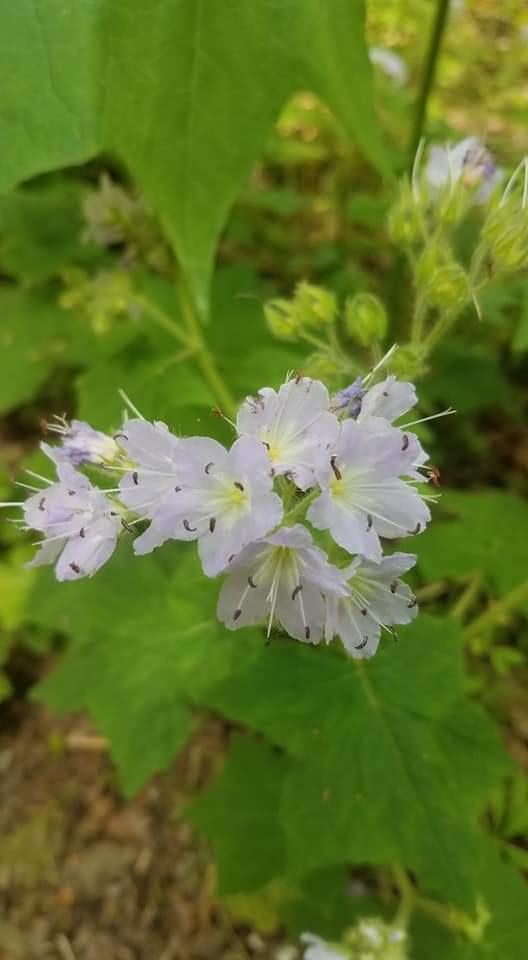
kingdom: Plantae
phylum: Tracheophyta
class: Magnoliopsida
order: Boraginales
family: Hydrophyllaceae
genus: Hydrophyllum
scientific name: Hydrophyllum appendiculatum
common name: Appendaged waterleaf
